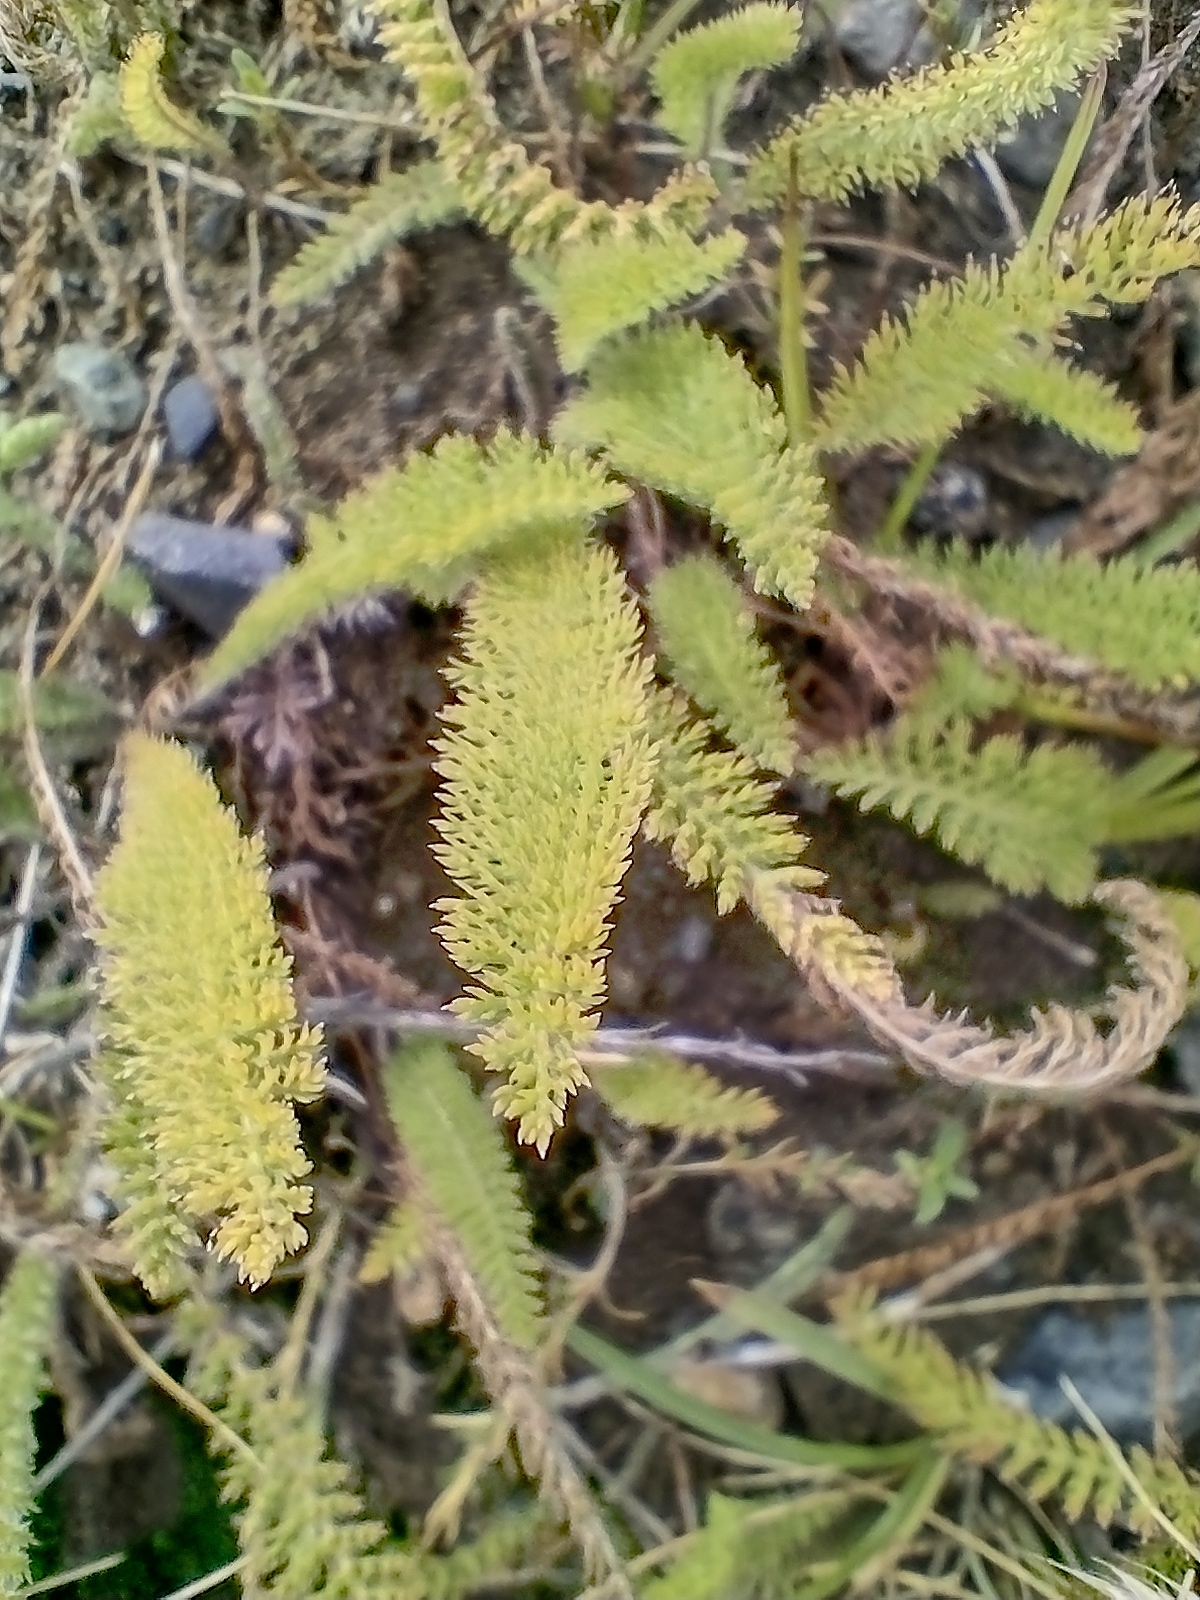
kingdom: Plantae
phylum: Tracheophyta
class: Magnoliopsida
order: Asterales
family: Asteraceae
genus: Achillea
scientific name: Achillea millefolium
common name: Yarrow
